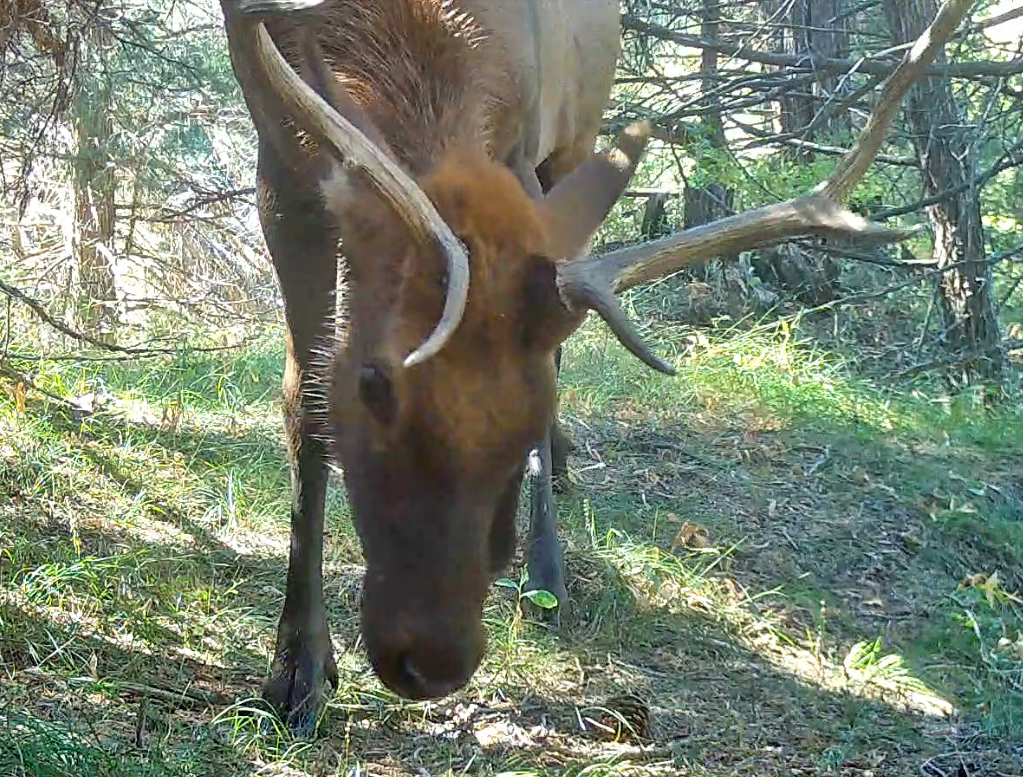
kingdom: Animalia
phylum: Chordata
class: Mammalia
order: Artiodactyla
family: Cervidae
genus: Cervus
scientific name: Cervus elaphus
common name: Red deer
